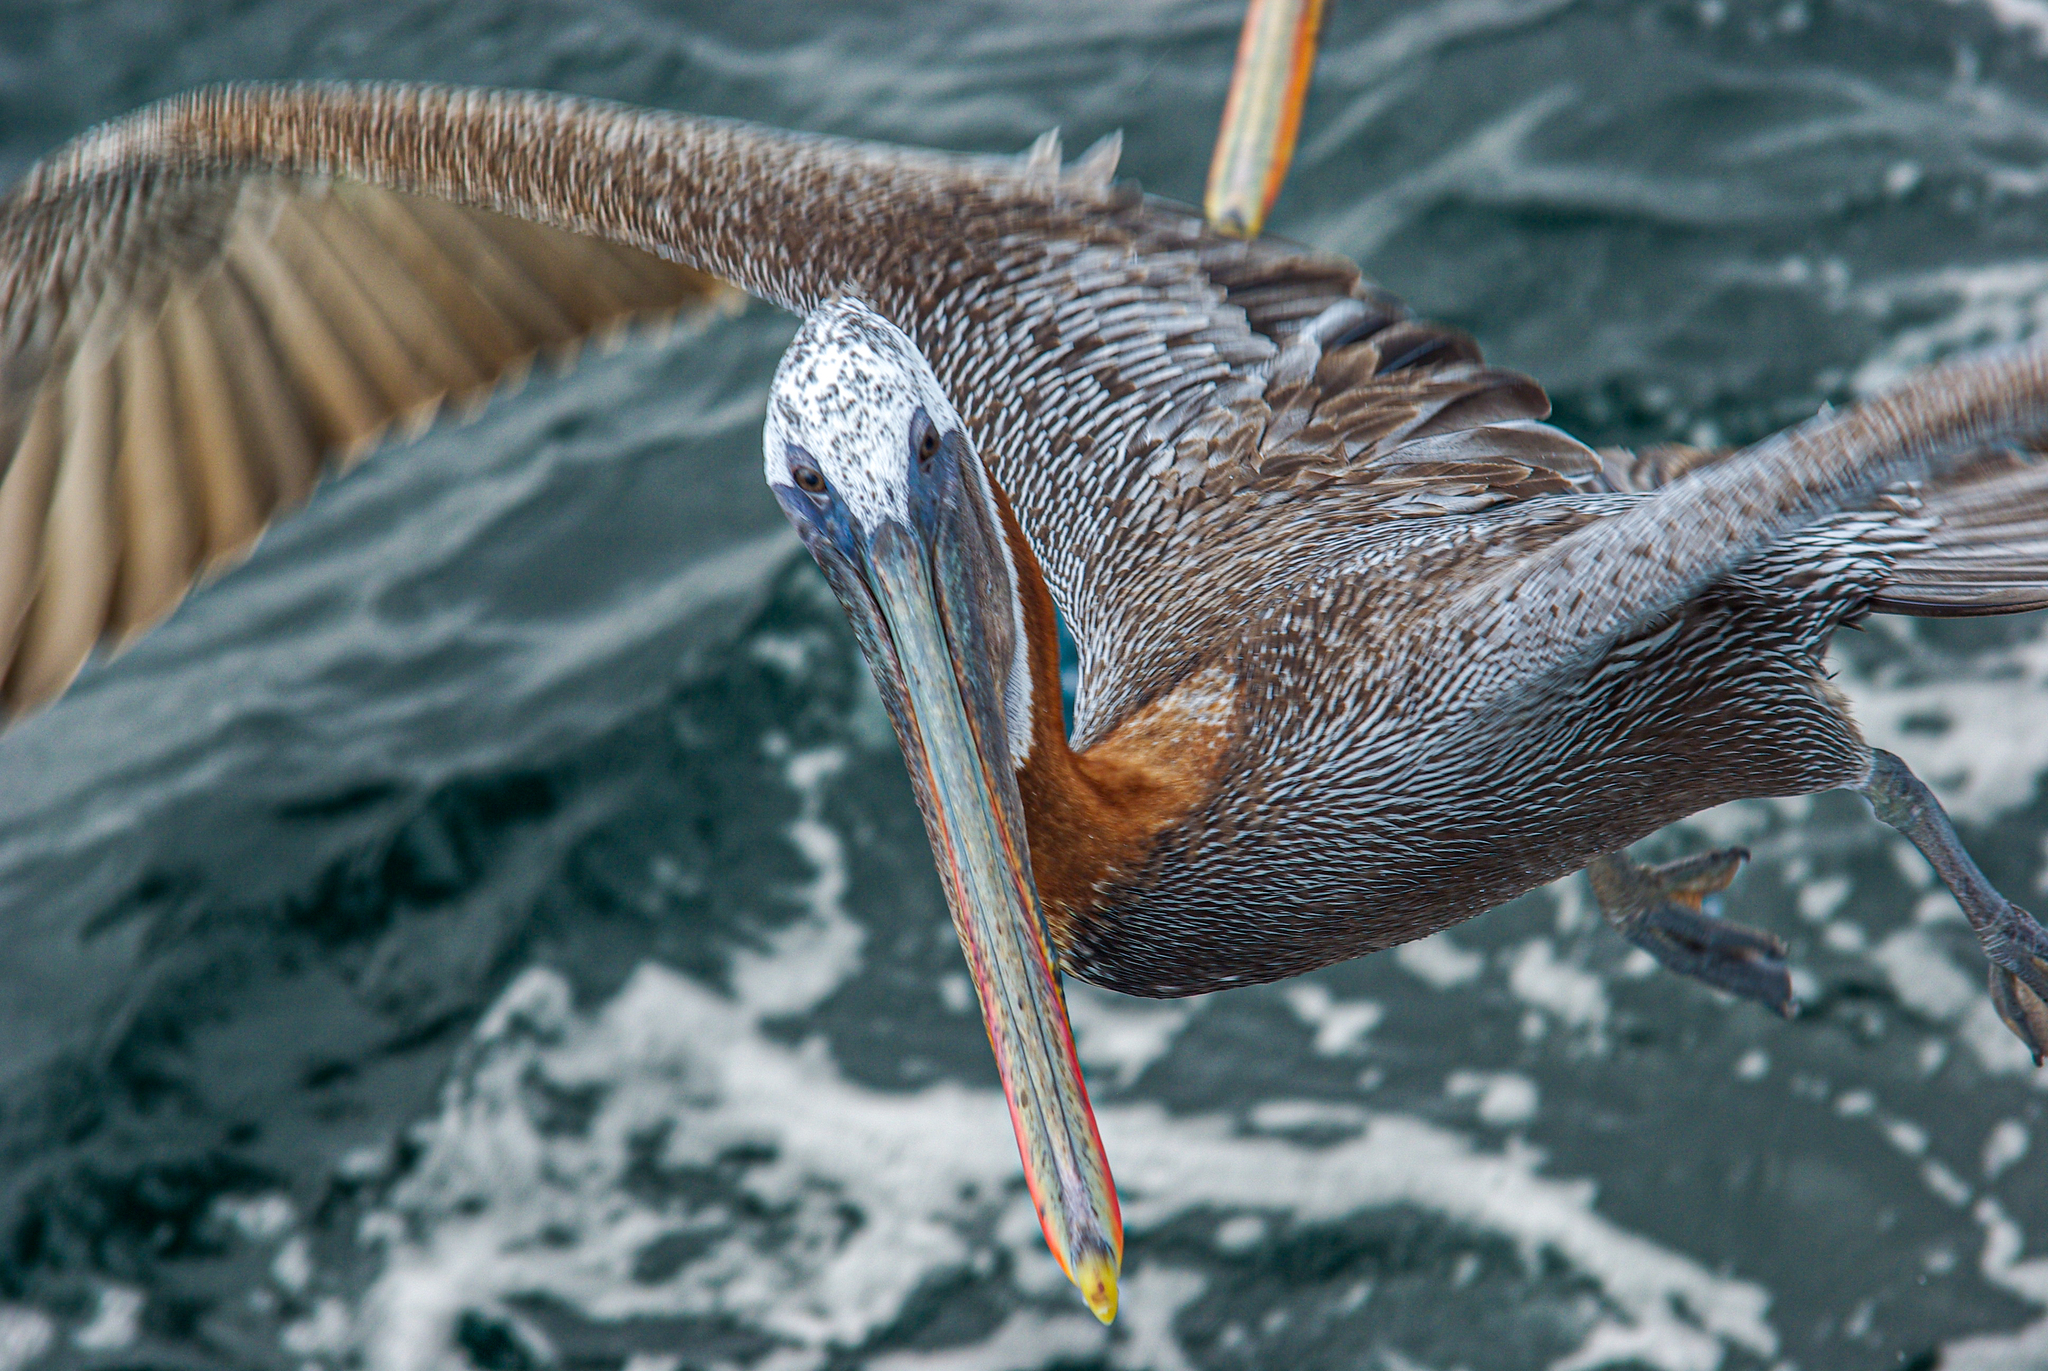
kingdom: Animalia
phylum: Chordata
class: Aves
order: Pelecaniformes
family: Pelecanidae
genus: Pelecanus
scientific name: Pelecanus occidentalis
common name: Brown pelican
